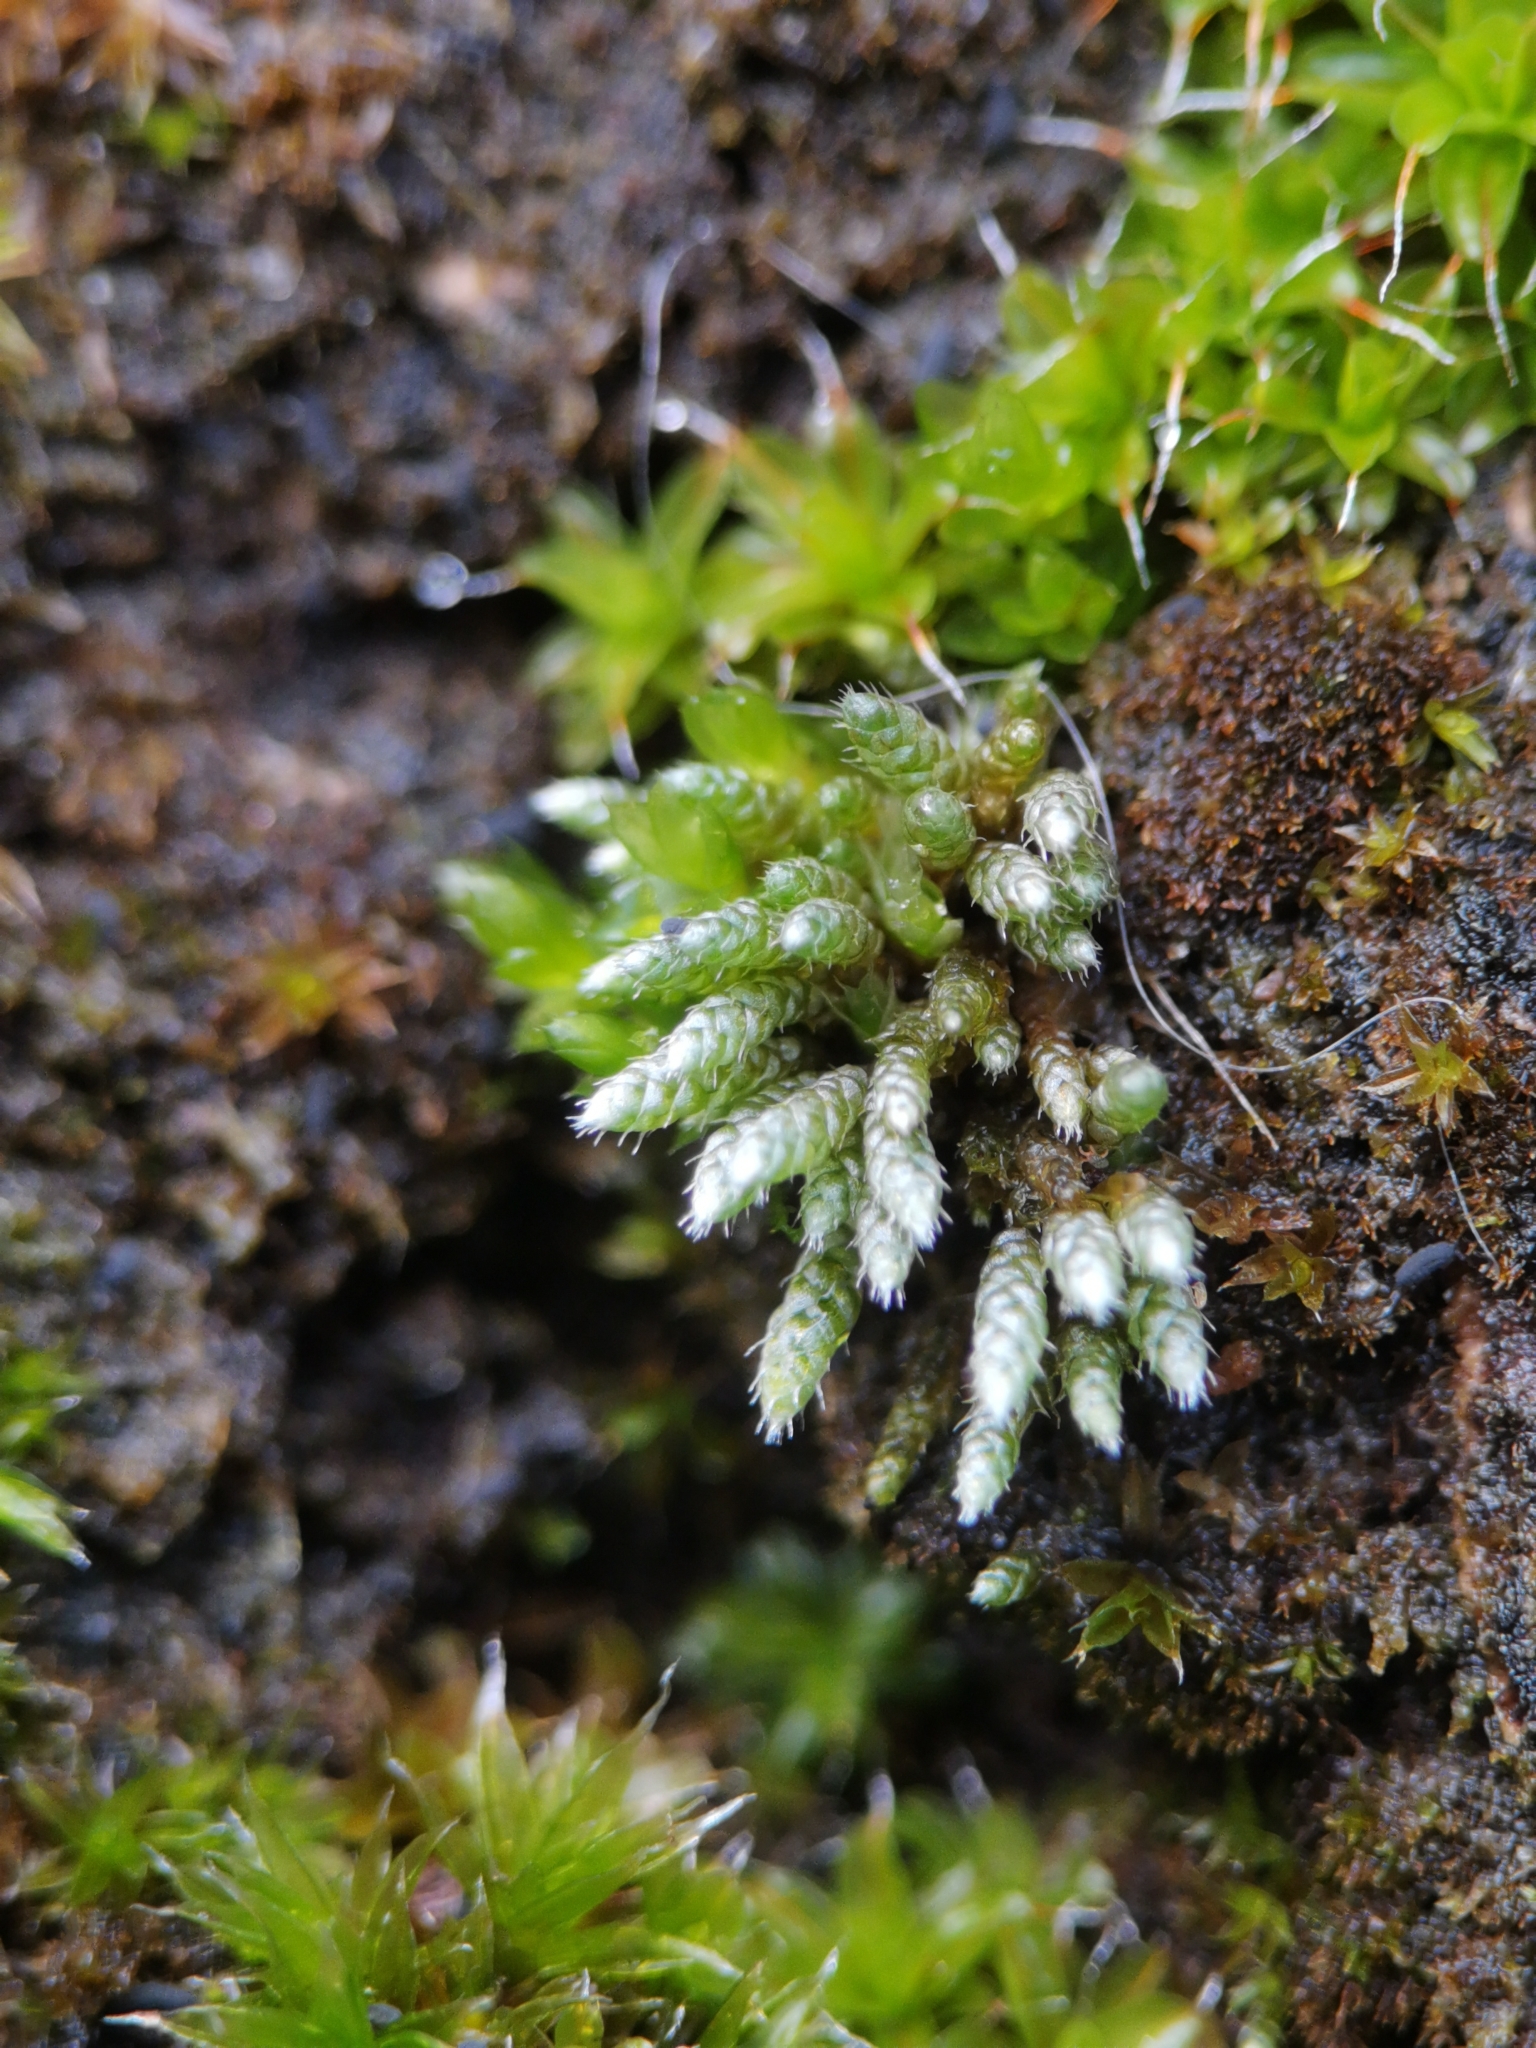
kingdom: Plantae
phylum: Bryophyta
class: Bryopsida
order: Bryales
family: Bryaceae
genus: Bryum
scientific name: Bryum argenteum
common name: Silver-moss
